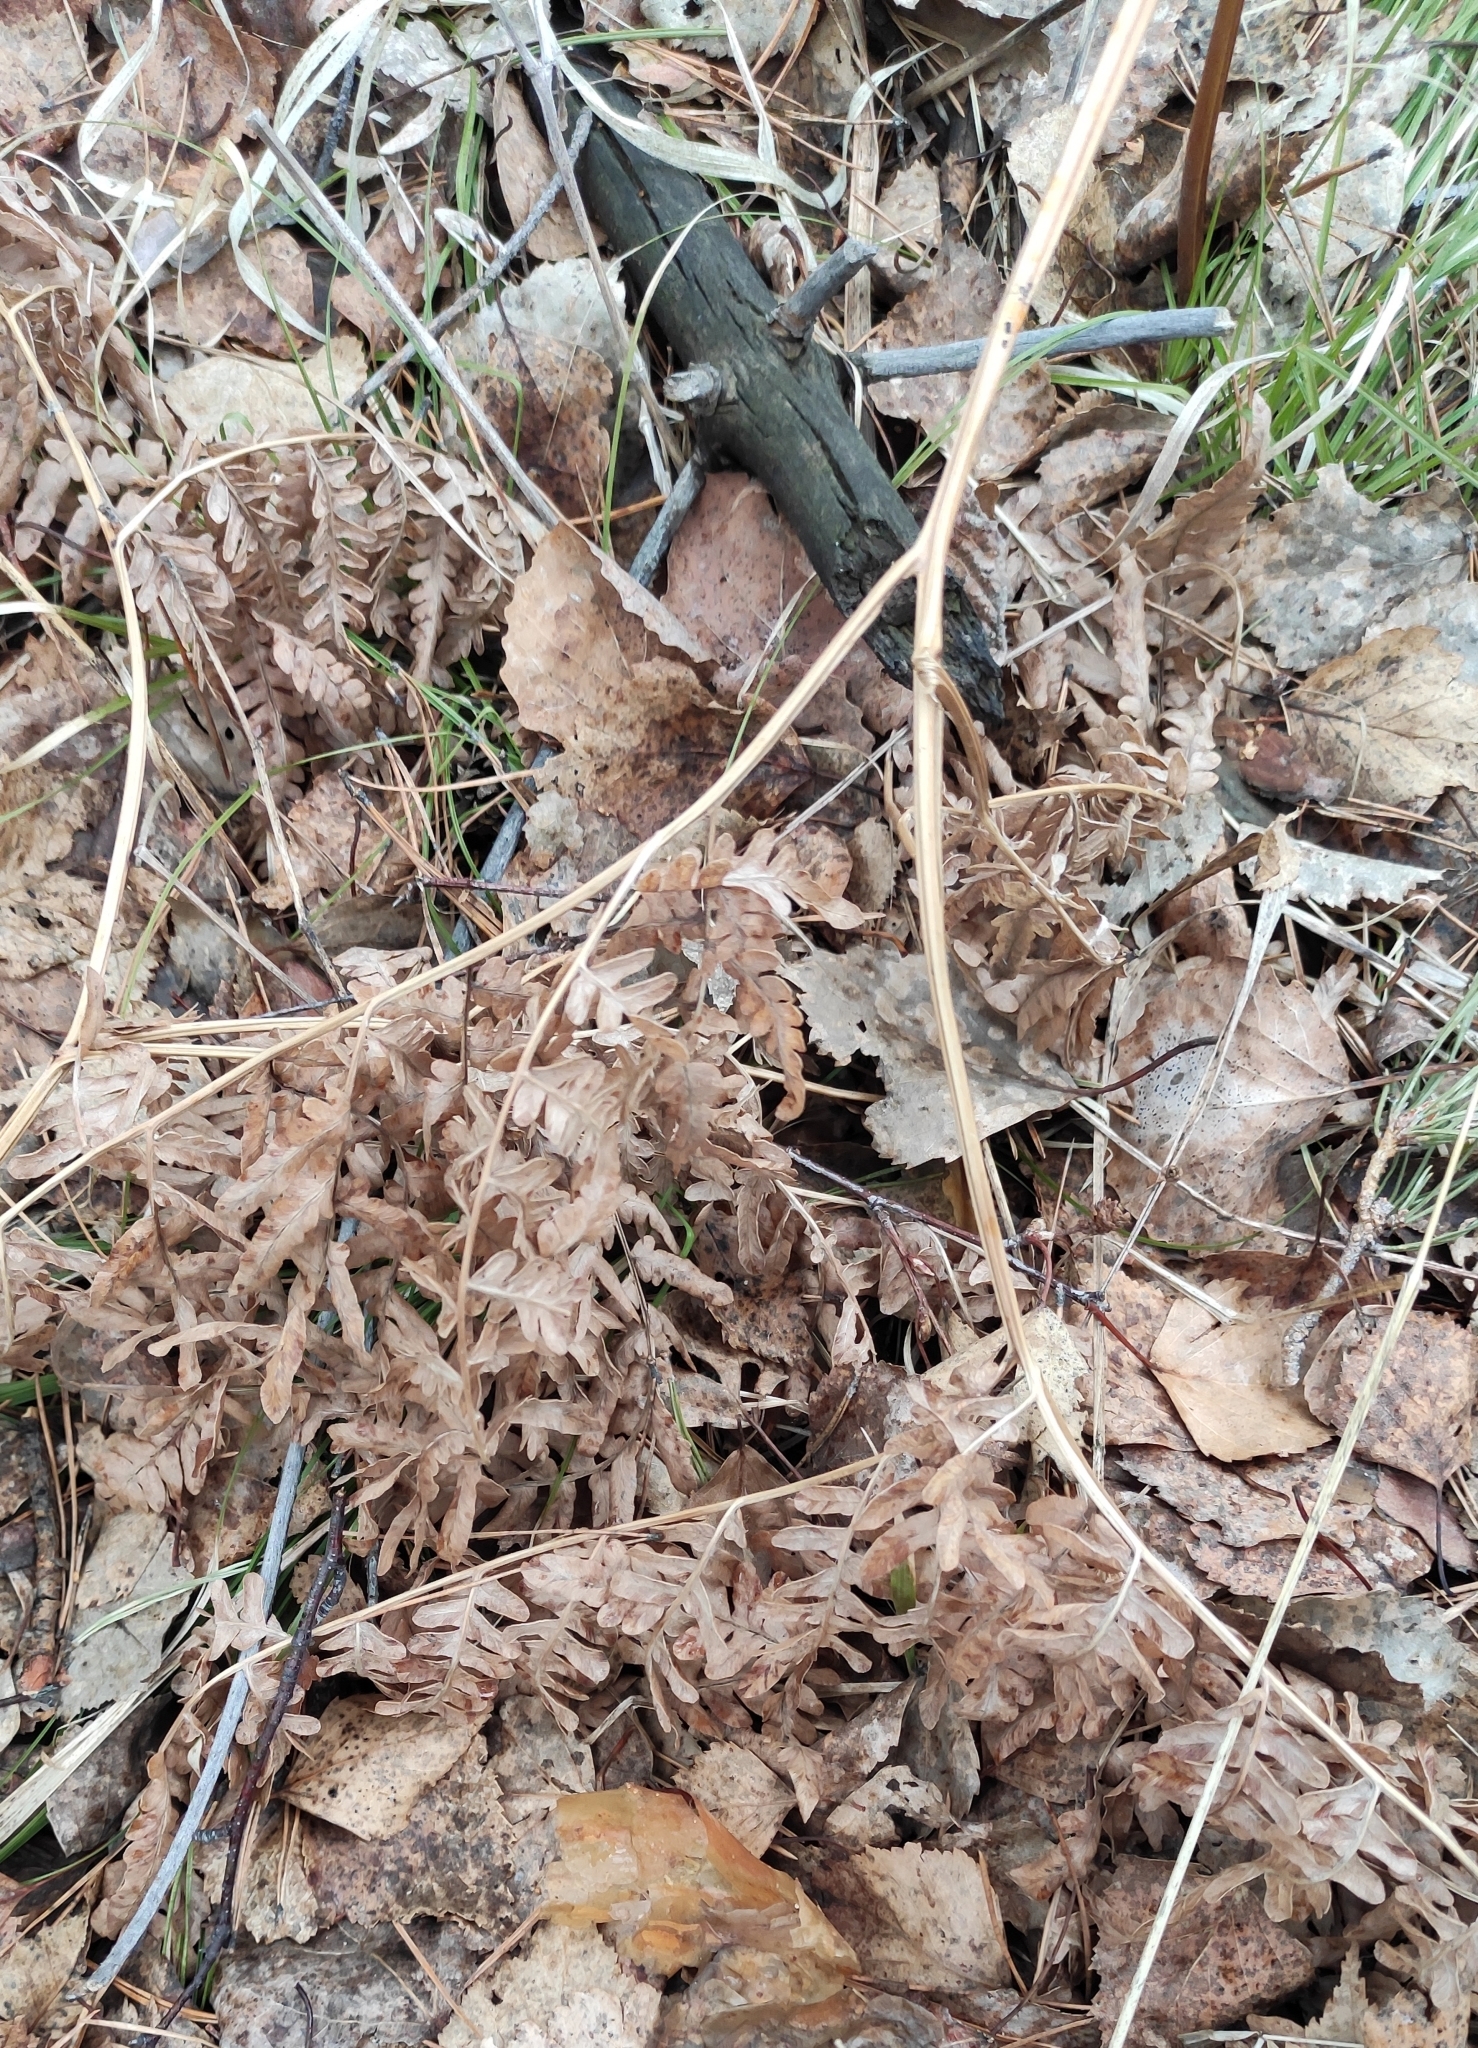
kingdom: Plantae
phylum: Tracheophyta
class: Polypodiopsida
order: Polypodiales
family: Dennstaedtiaceae
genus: Pteridium
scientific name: Pteridium aquilinum
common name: Bracken
